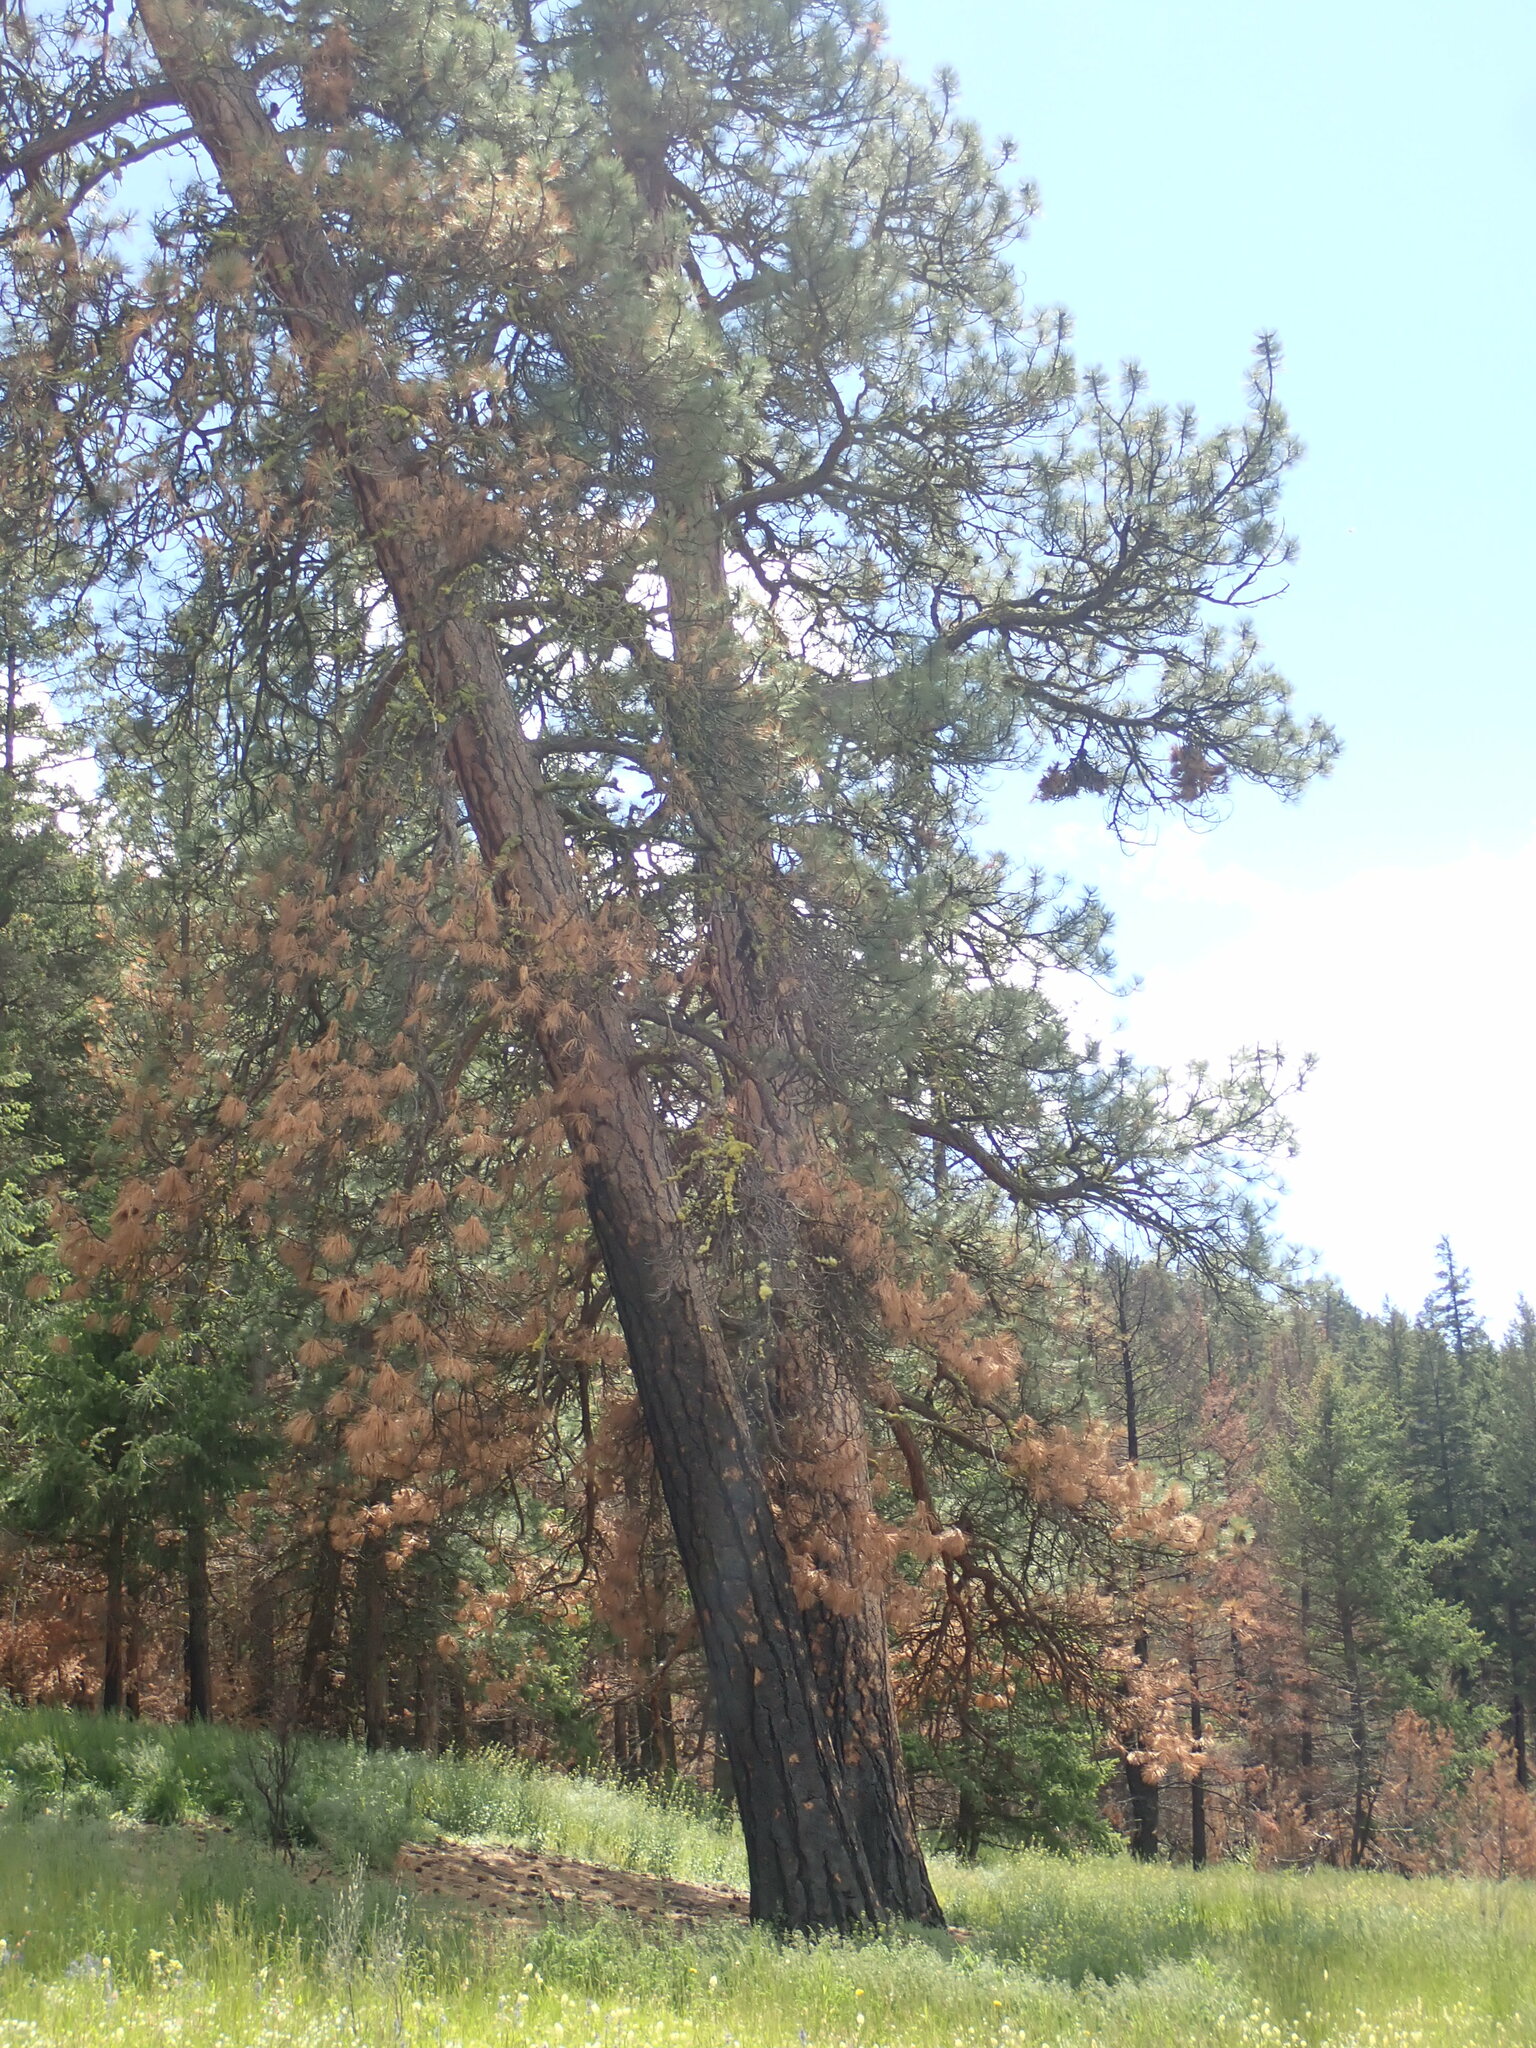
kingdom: Plantae
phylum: Tracheophyta
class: Pinopsida
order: Pinales
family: Pinaceae
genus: Pinus
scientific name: Pinus ponderosa
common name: Western yellow-pine
